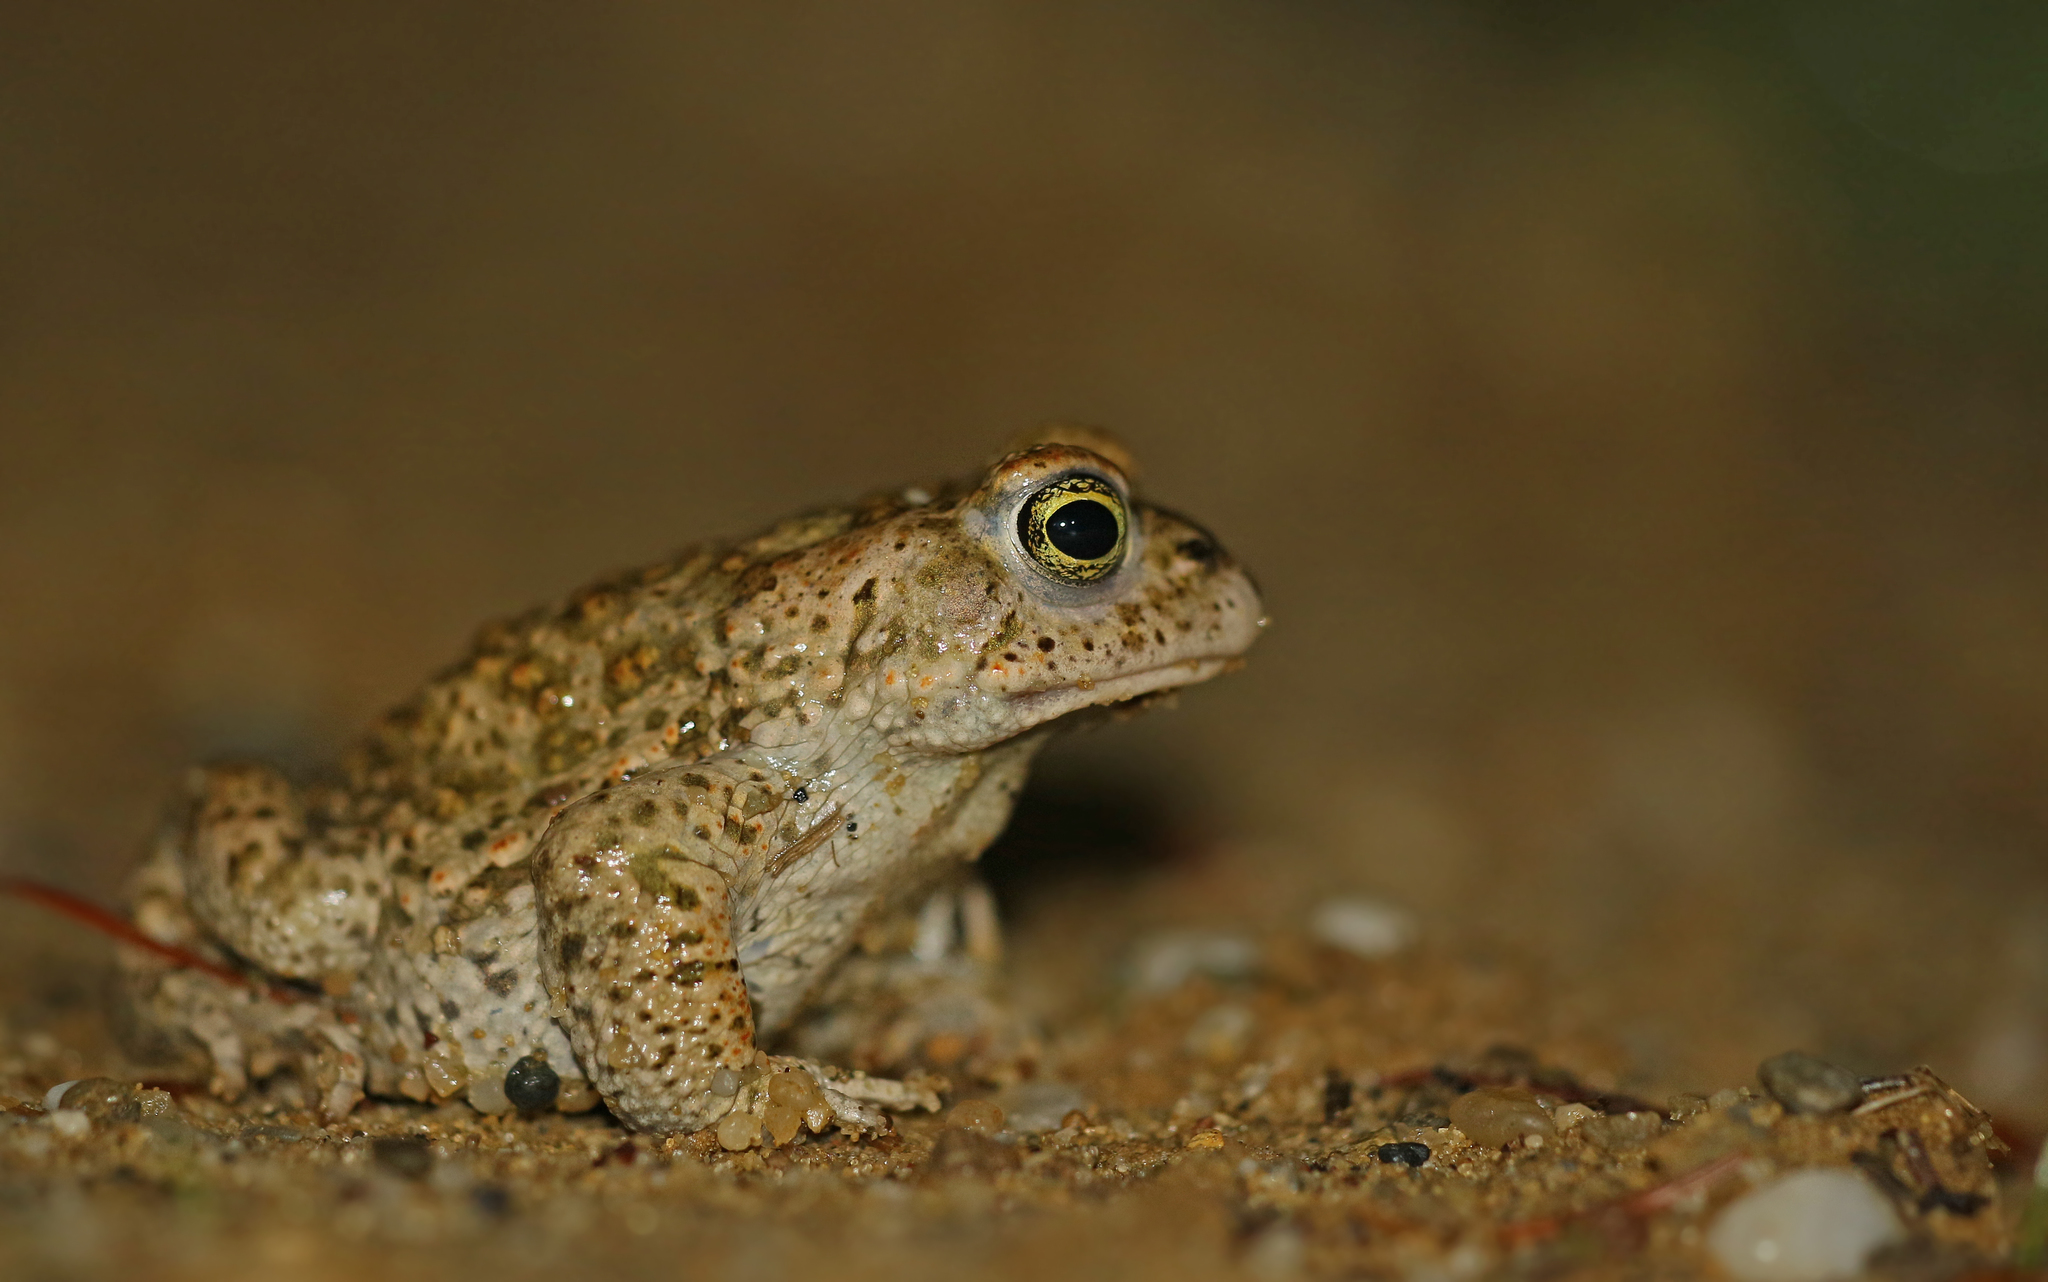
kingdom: Animalia
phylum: Chordata
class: Amphibia
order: Anura
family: Bufonidae
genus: Epidalea
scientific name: Epidalea calamita
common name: Natterjack toad
